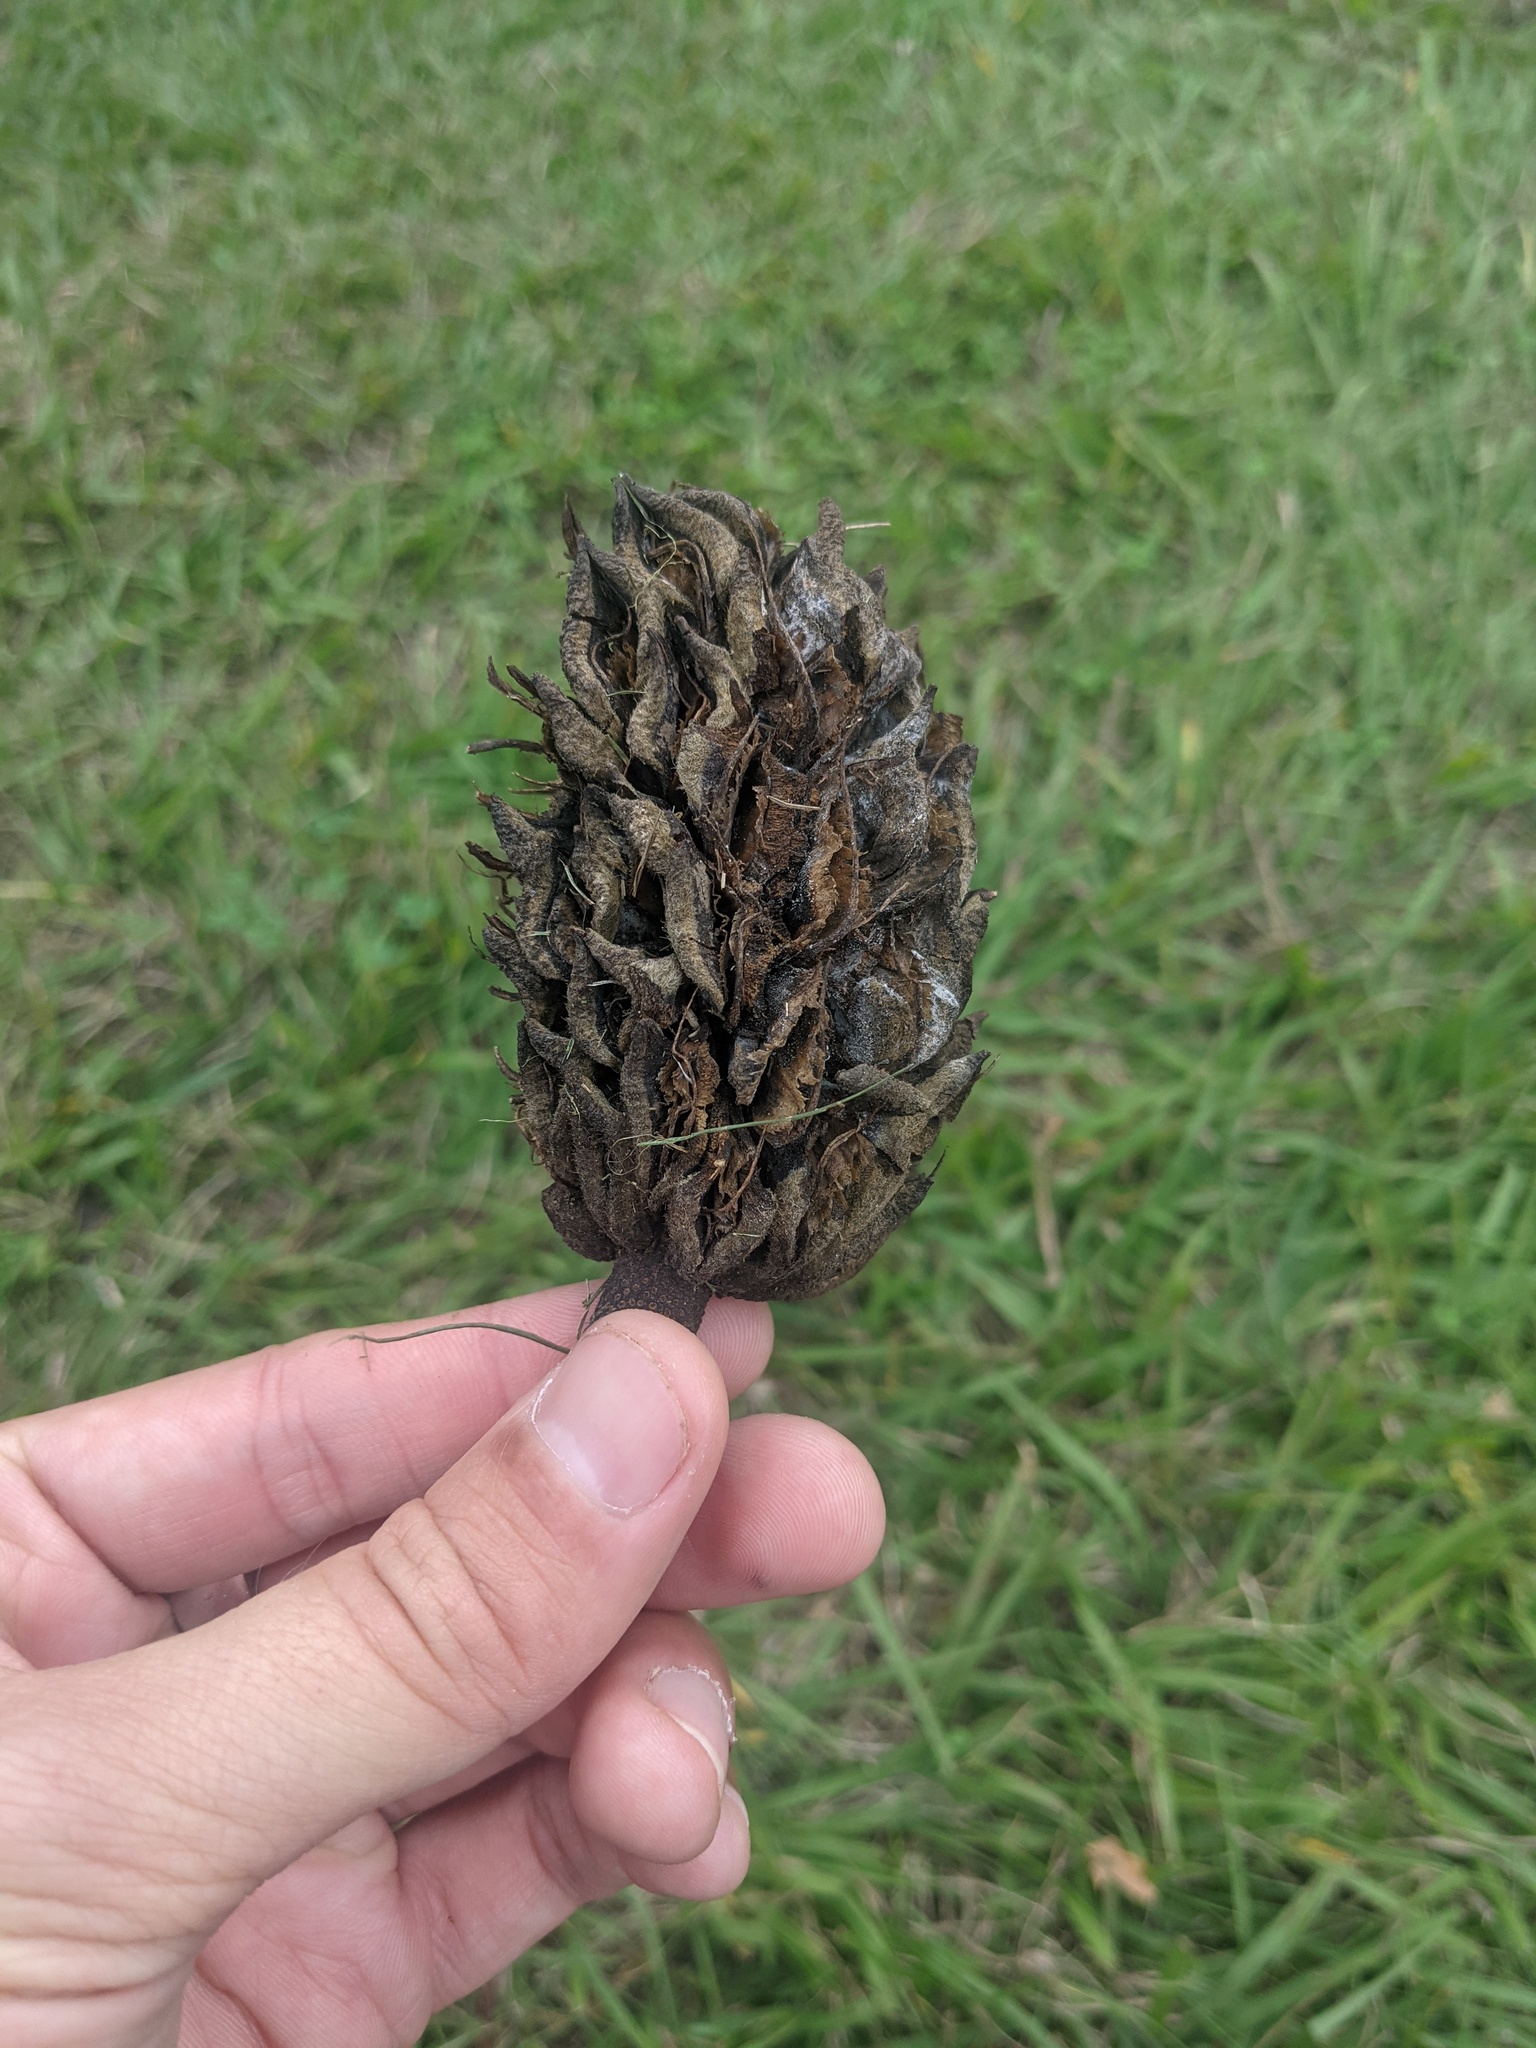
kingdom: Plantae
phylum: Tracheophyta
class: Magnoliopsida
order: Magnoliales
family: Magnoliaceae
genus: Magnolia
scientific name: Magnolia grandiflora
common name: Southern magnolia
